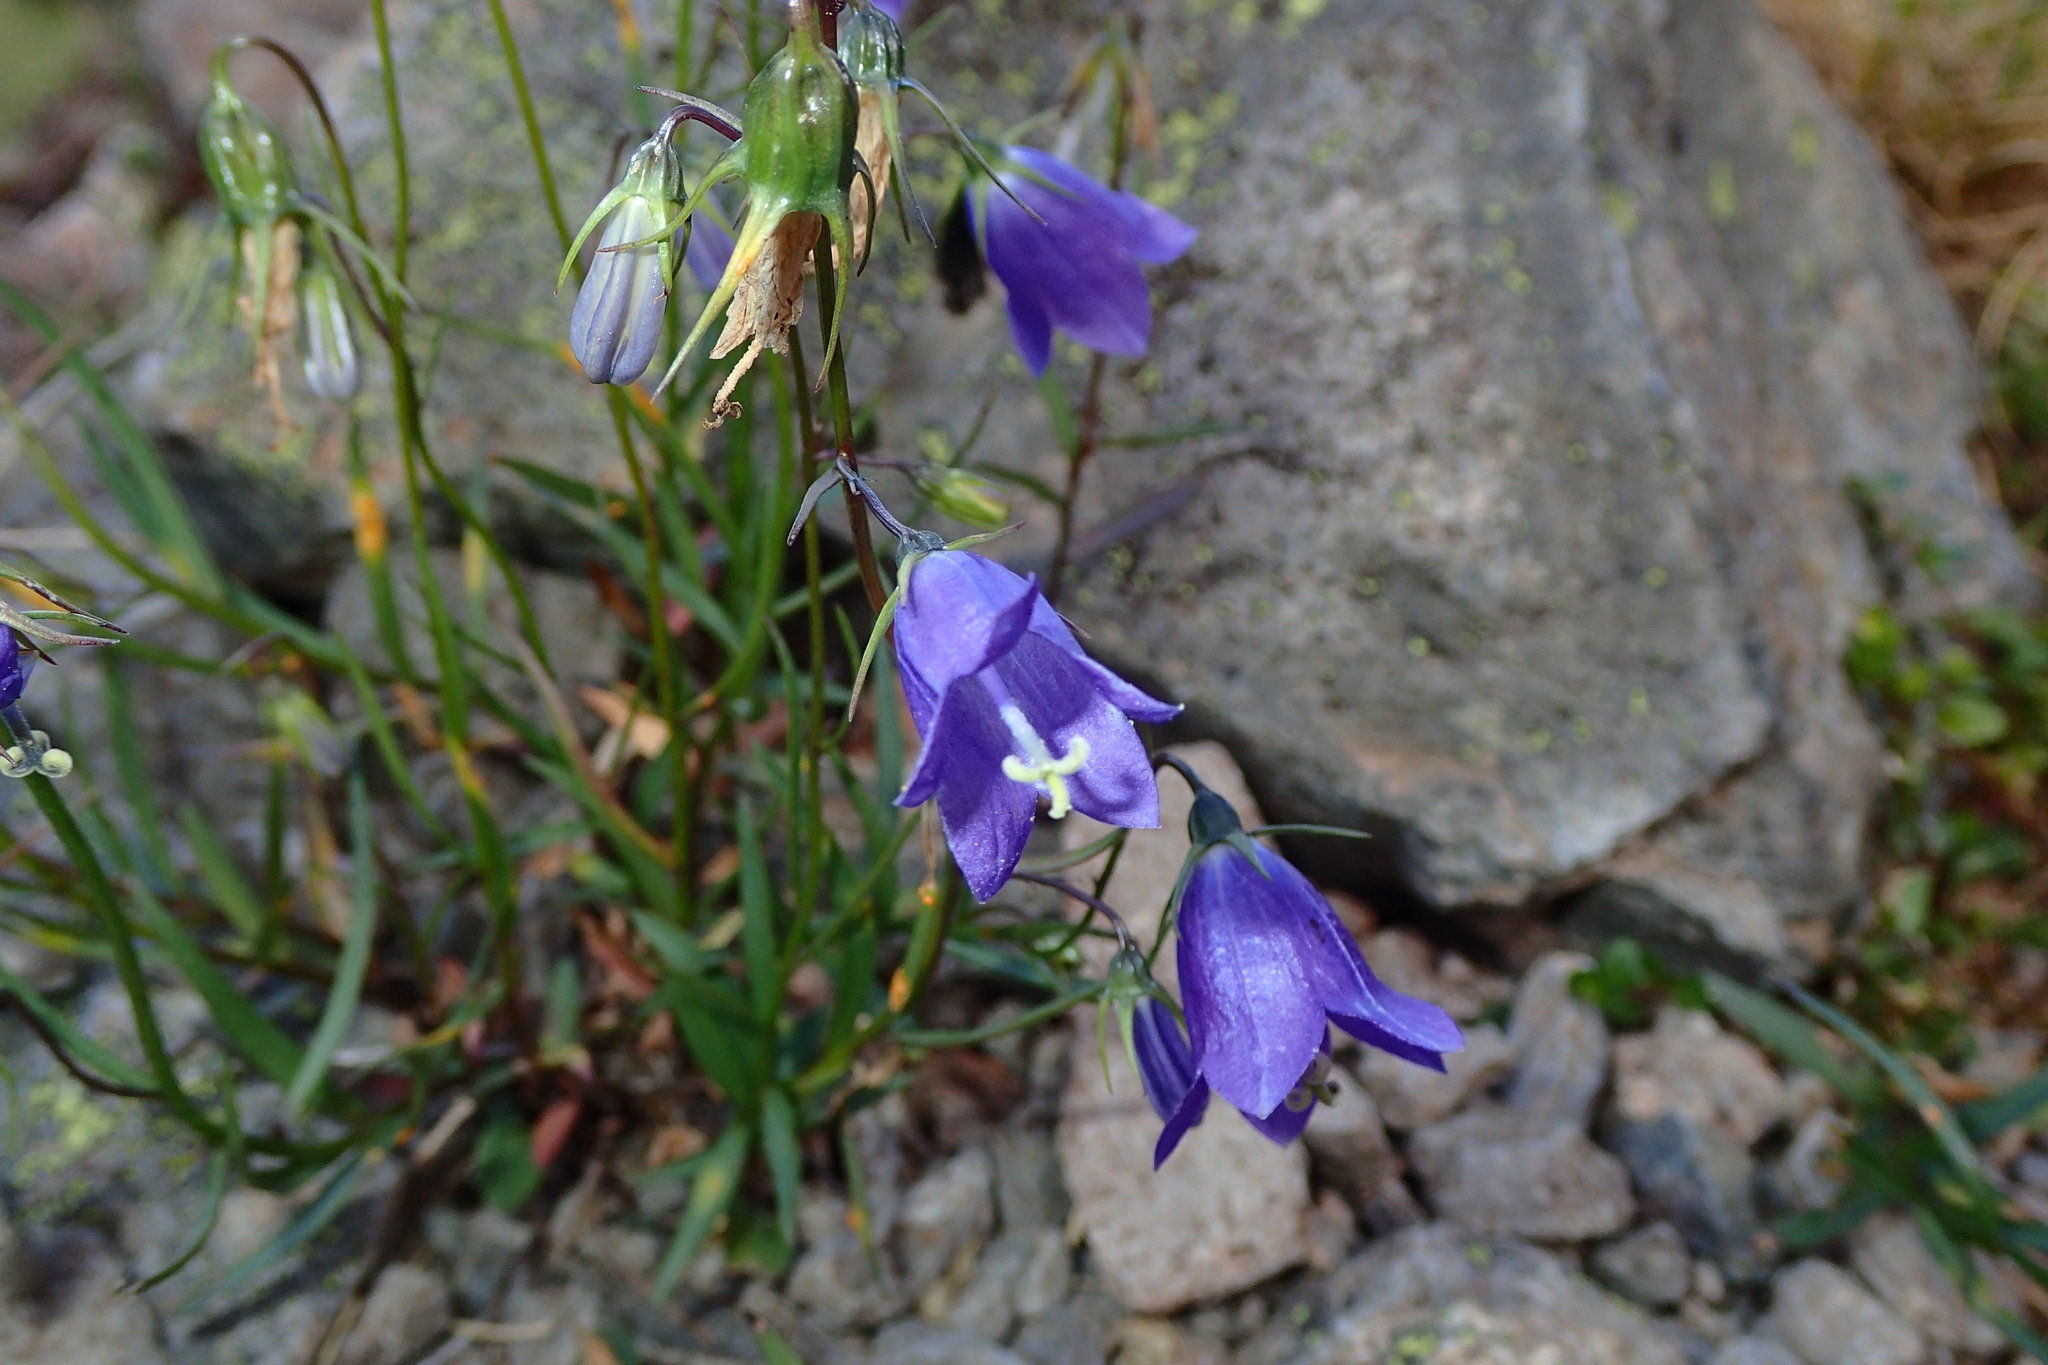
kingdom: Plantae
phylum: Tracheophyta
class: Magnoliopsida
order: Asterales
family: Campanulaceae
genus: Campanula
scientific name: Campanula scheuchzeri
